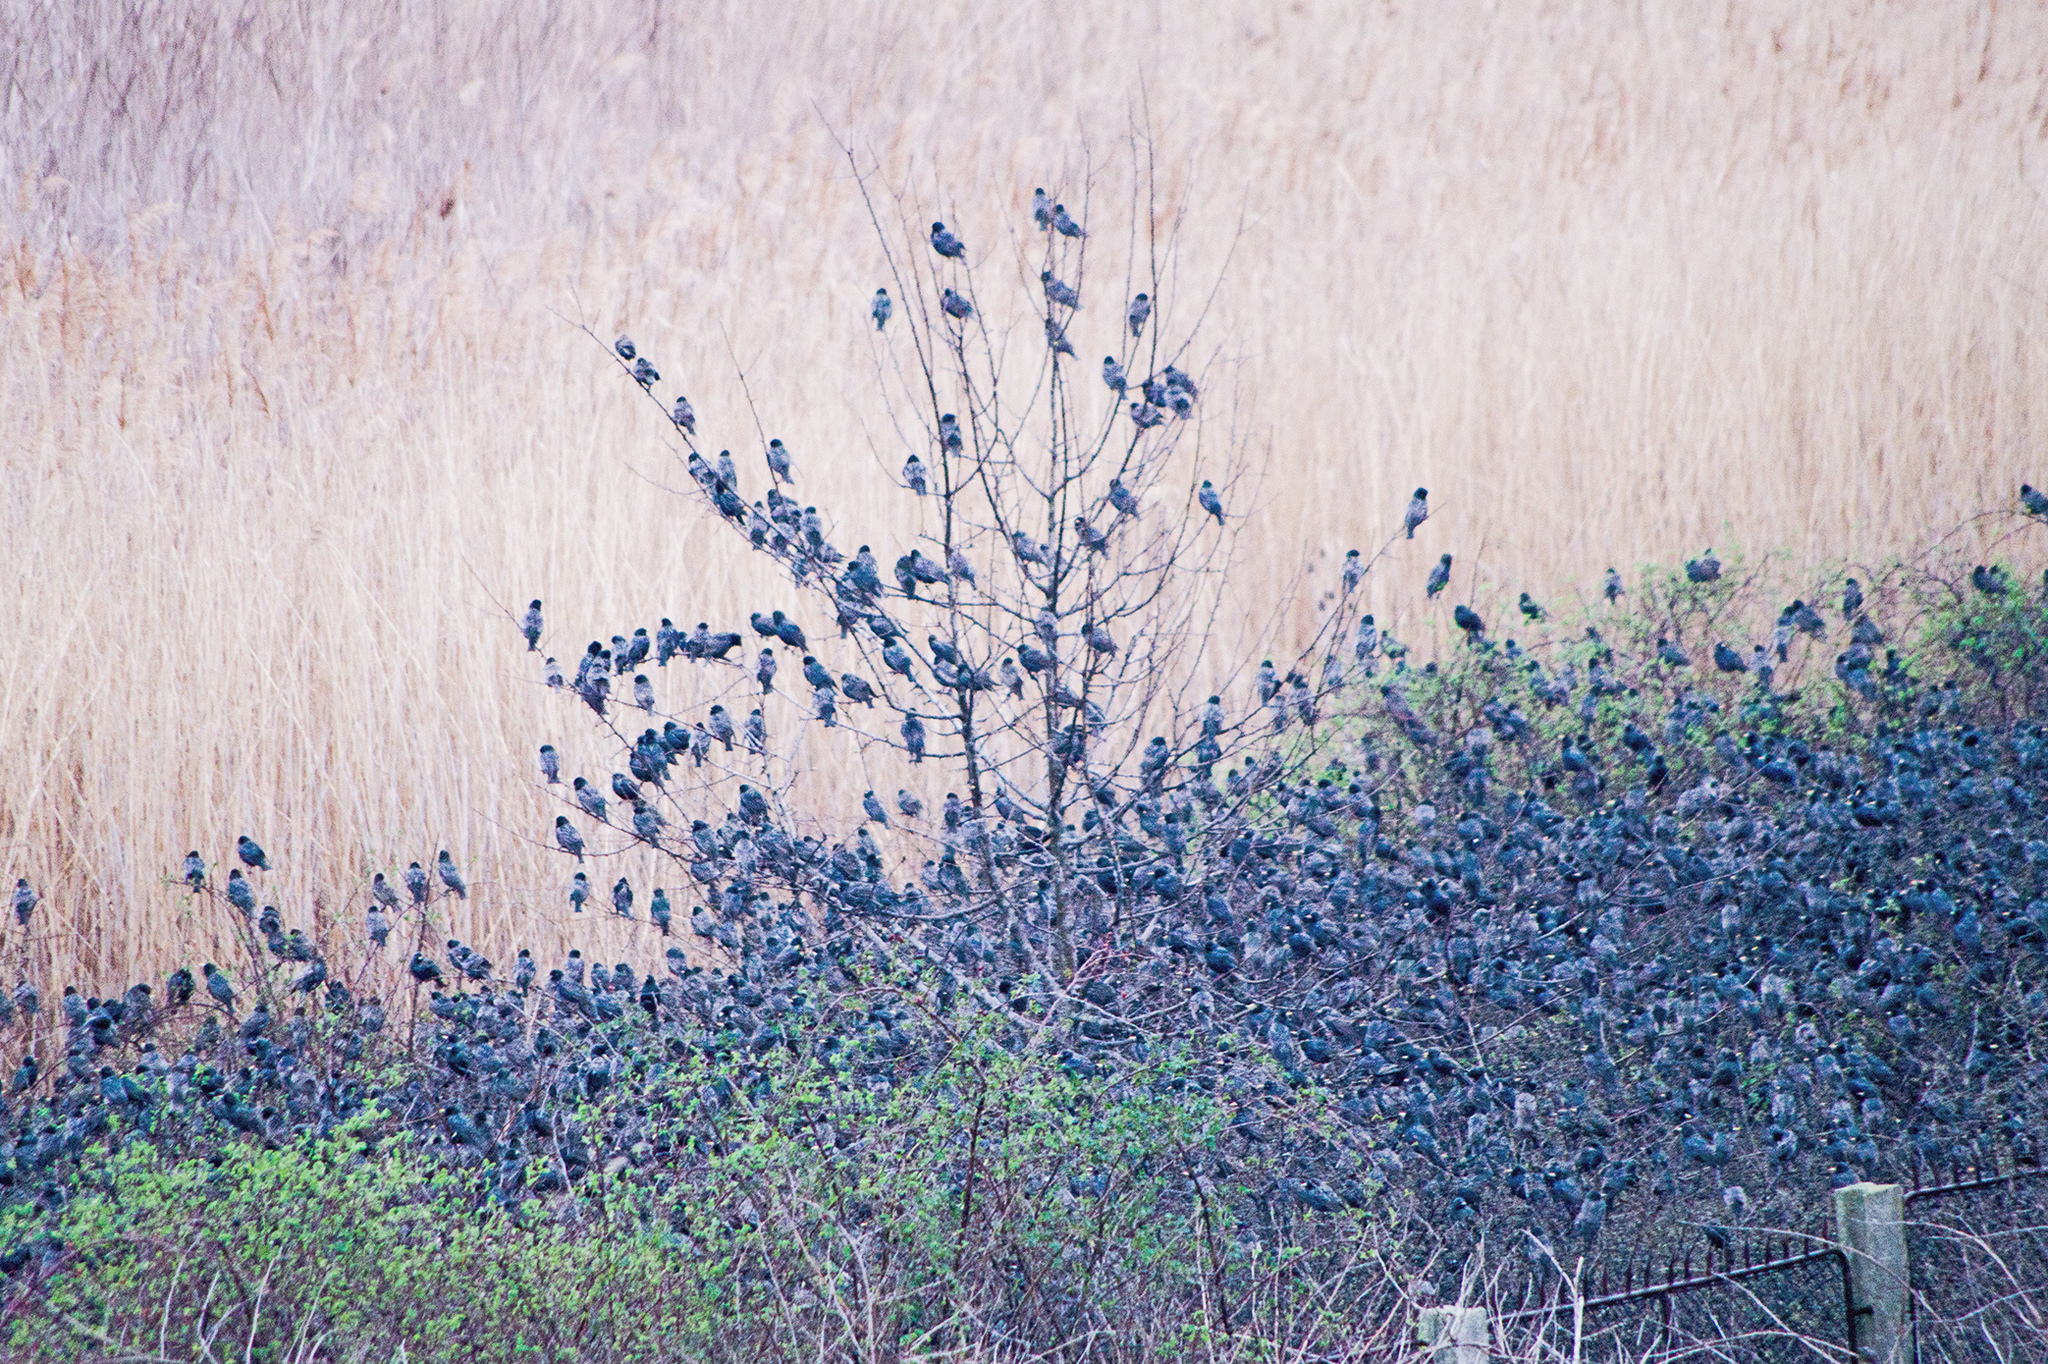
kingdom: Animalia
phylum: Chordata
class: Aves
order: Passeriformes
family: Sturnidae
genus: Sturnus
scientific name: Sturnus vulgaris
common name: Common starling
